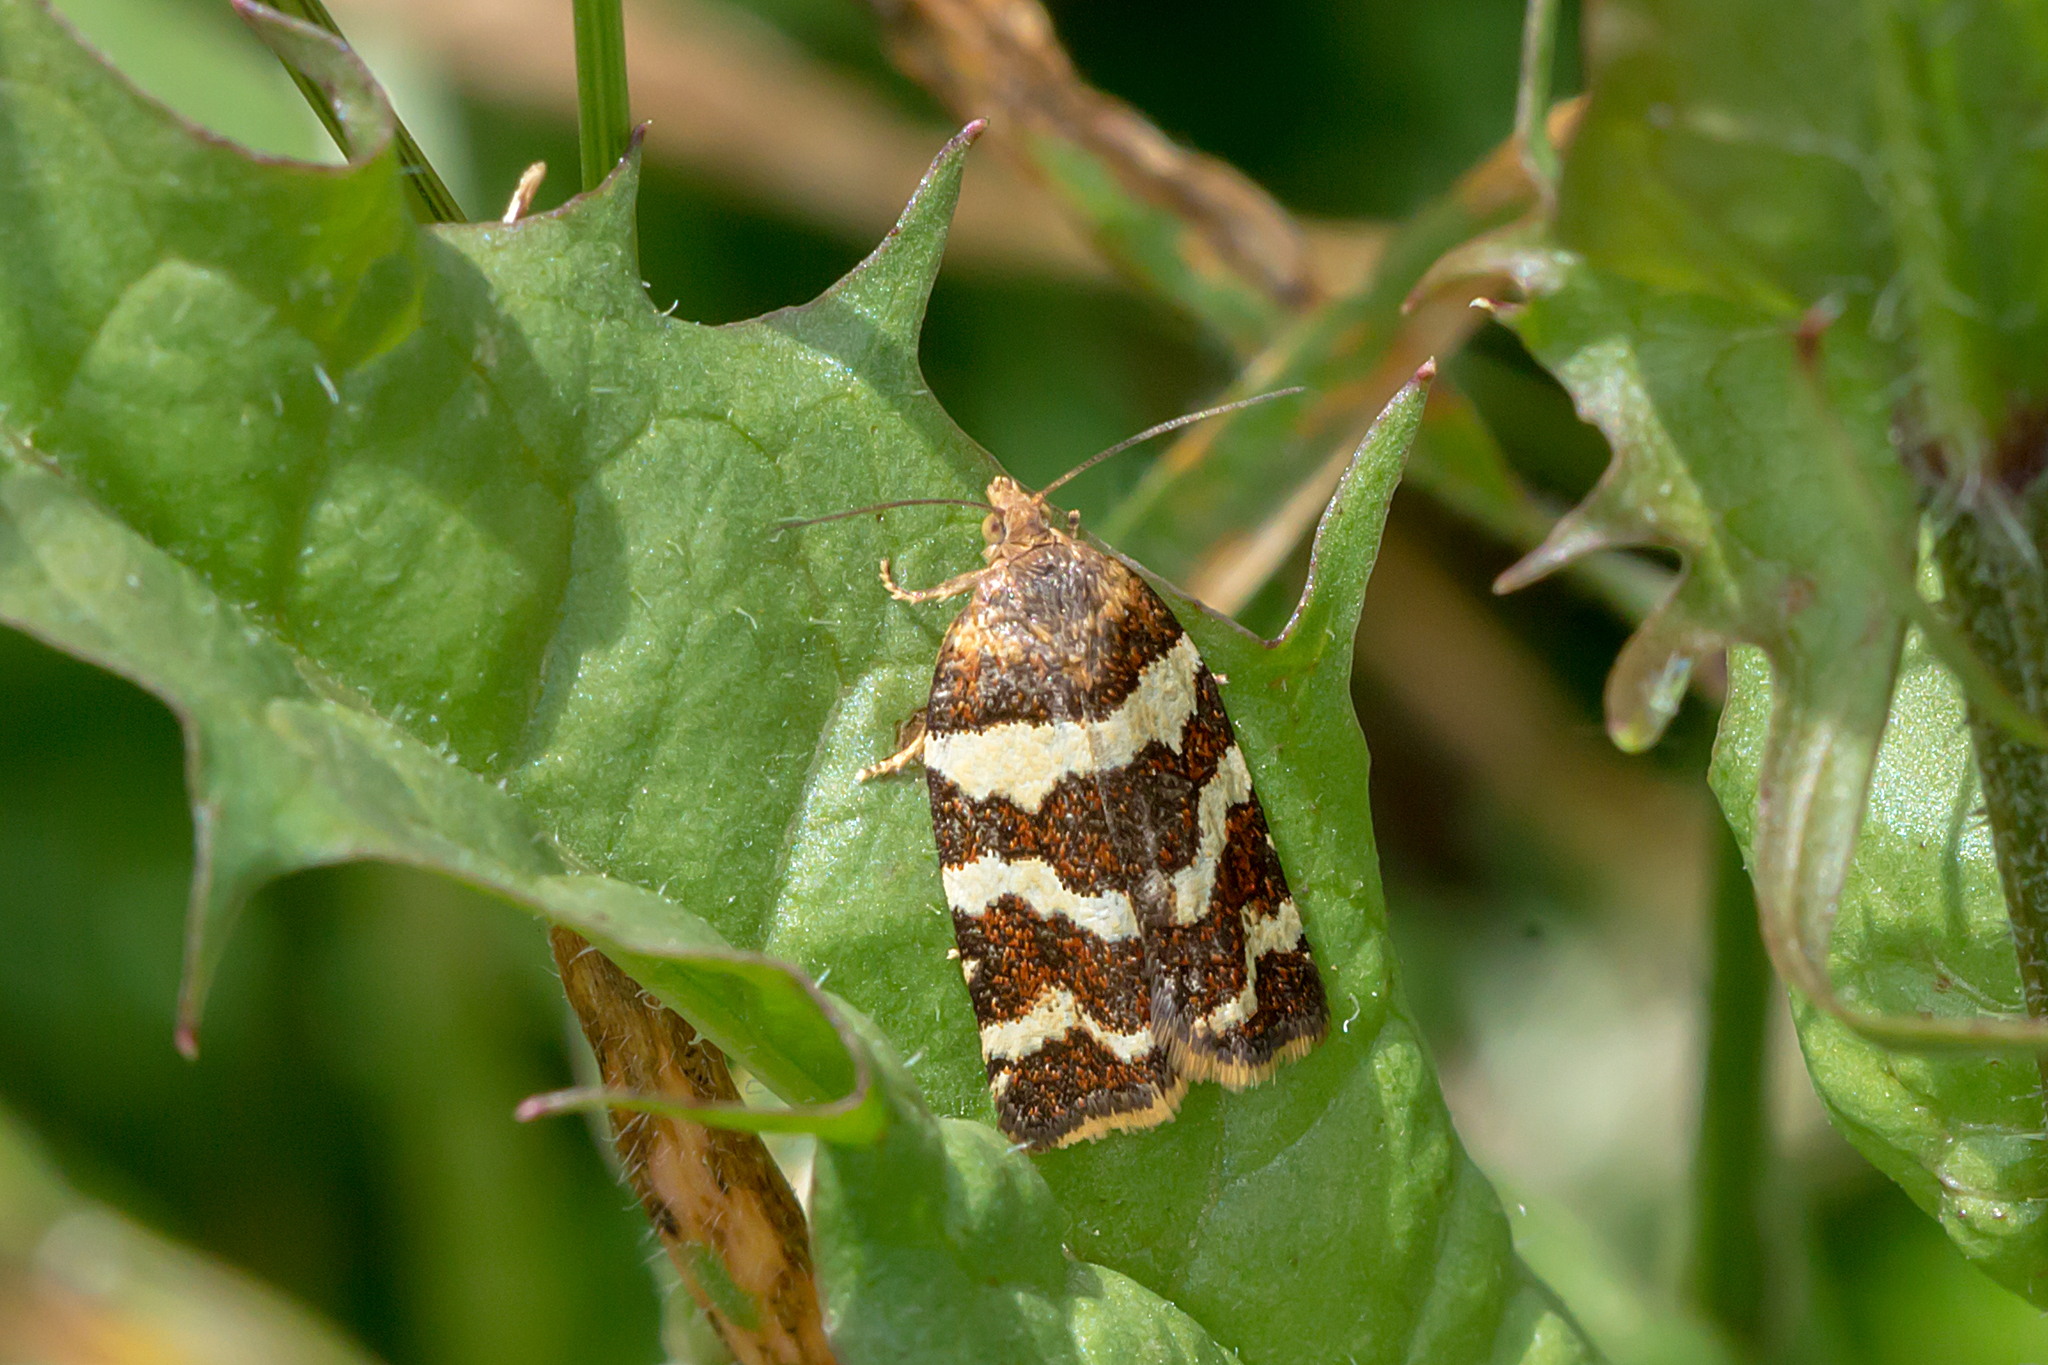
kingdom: Animalia
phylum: Arthropoda
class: Insecta
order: Lepidoptera
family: Tortricidae
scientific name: Tortricidae
